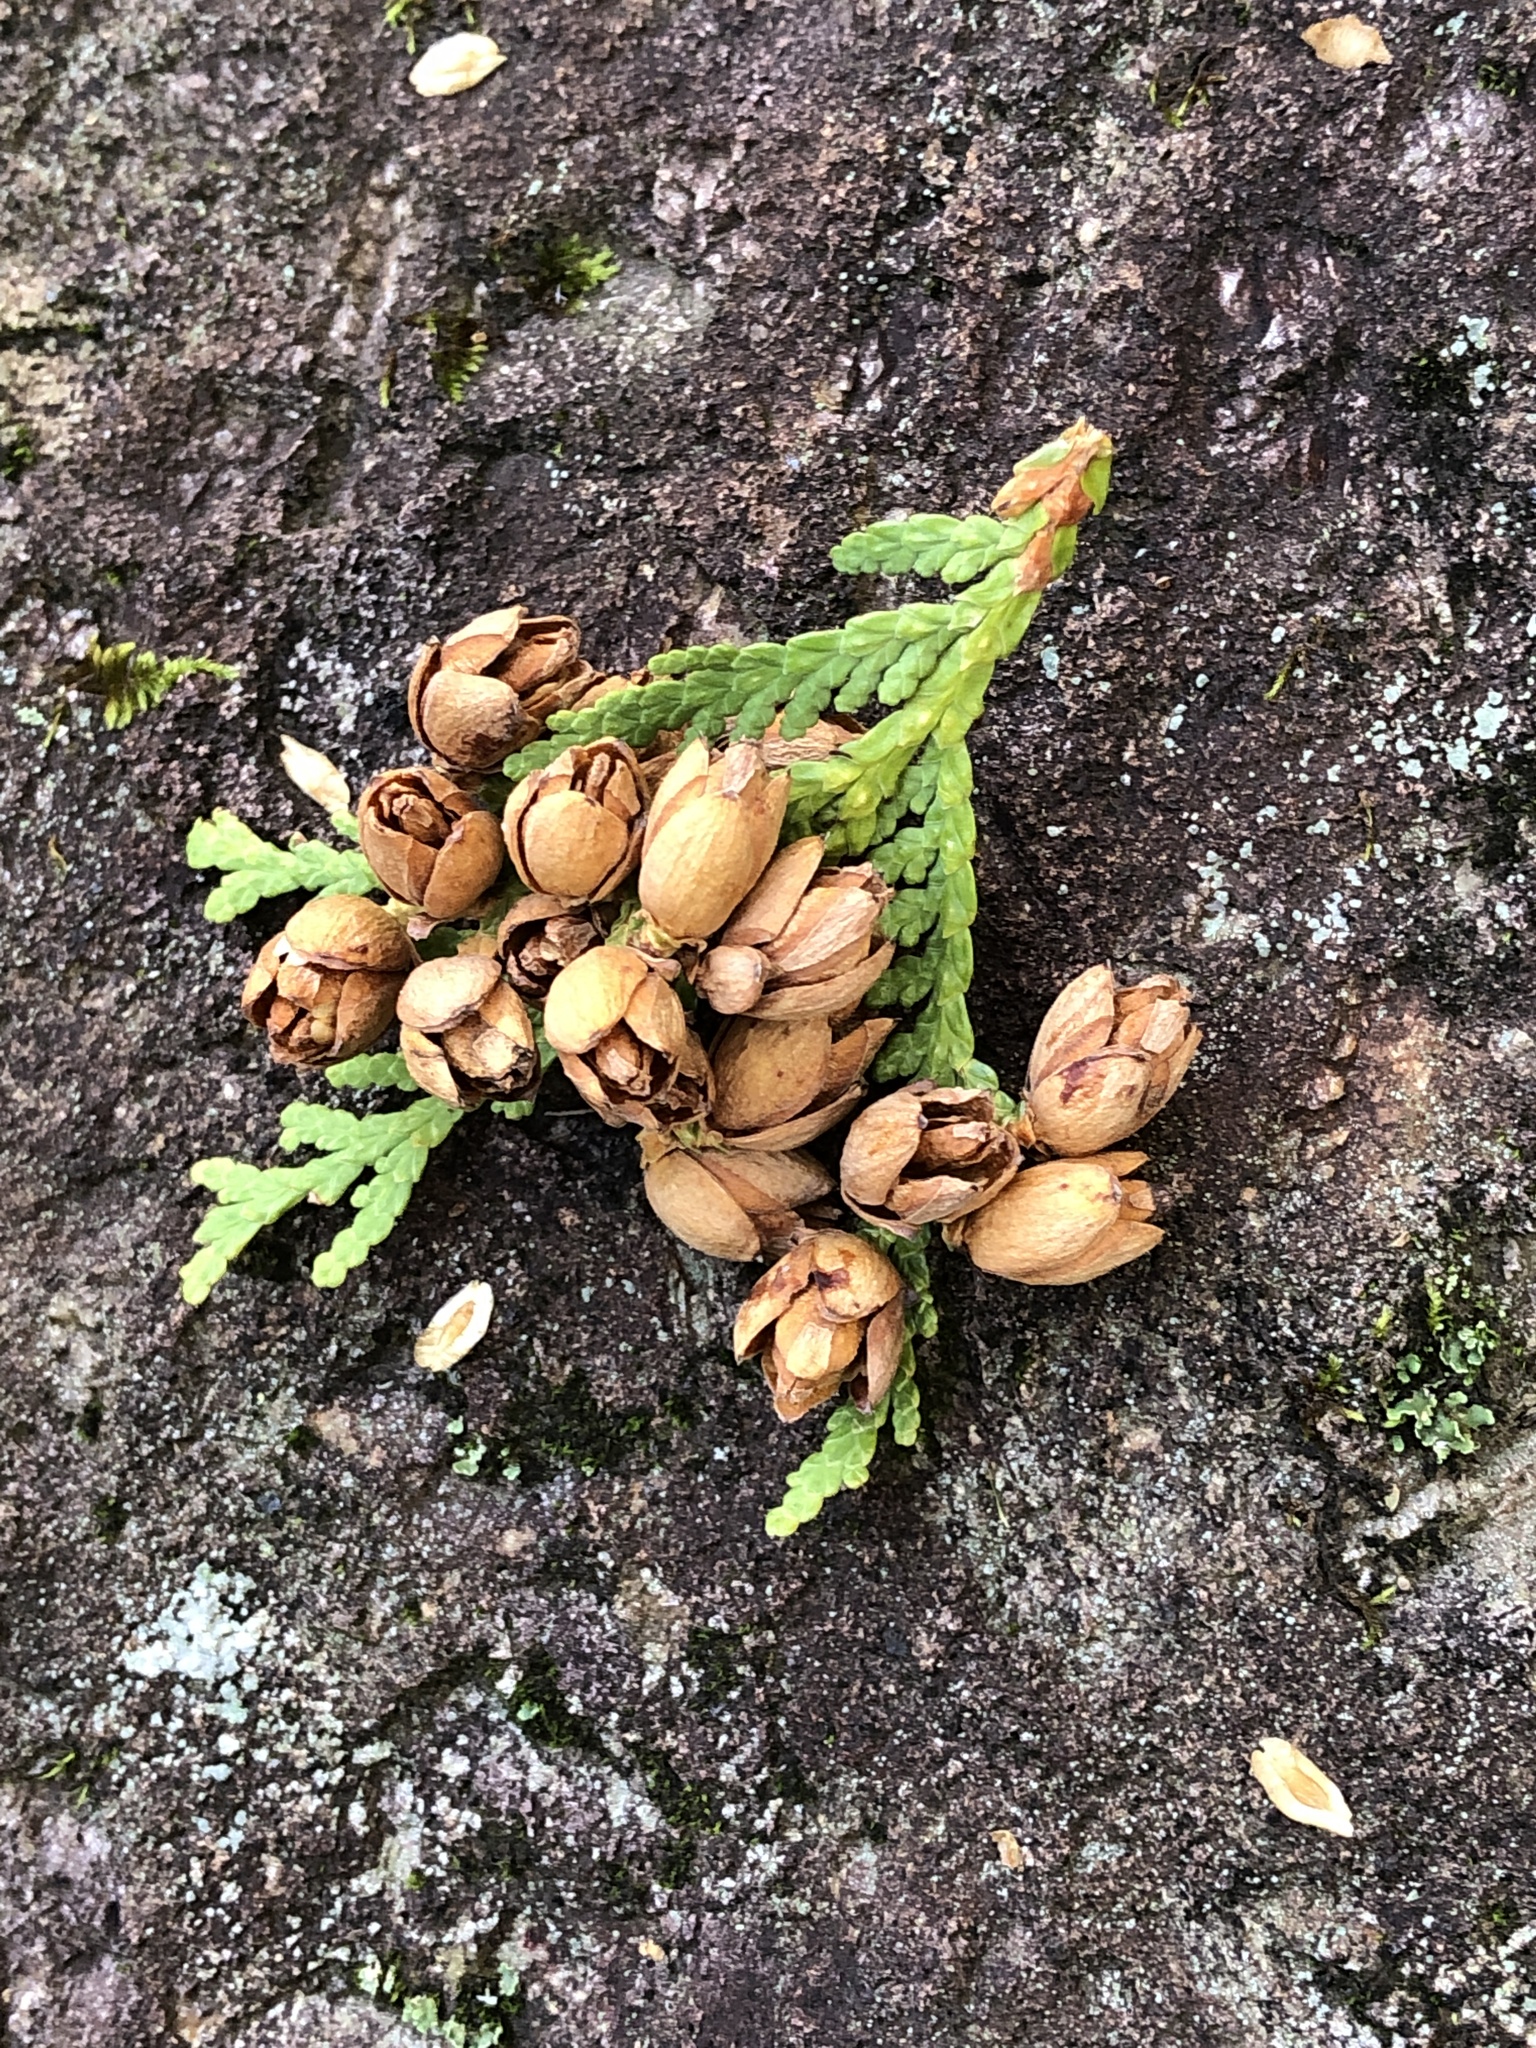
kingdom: Plantae
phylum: Tracheophyta
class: Pinopsida
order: Pinales
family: Cupressaceae
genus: Thuja
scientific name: Thuja occidentalis
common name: Northern white-cedar
